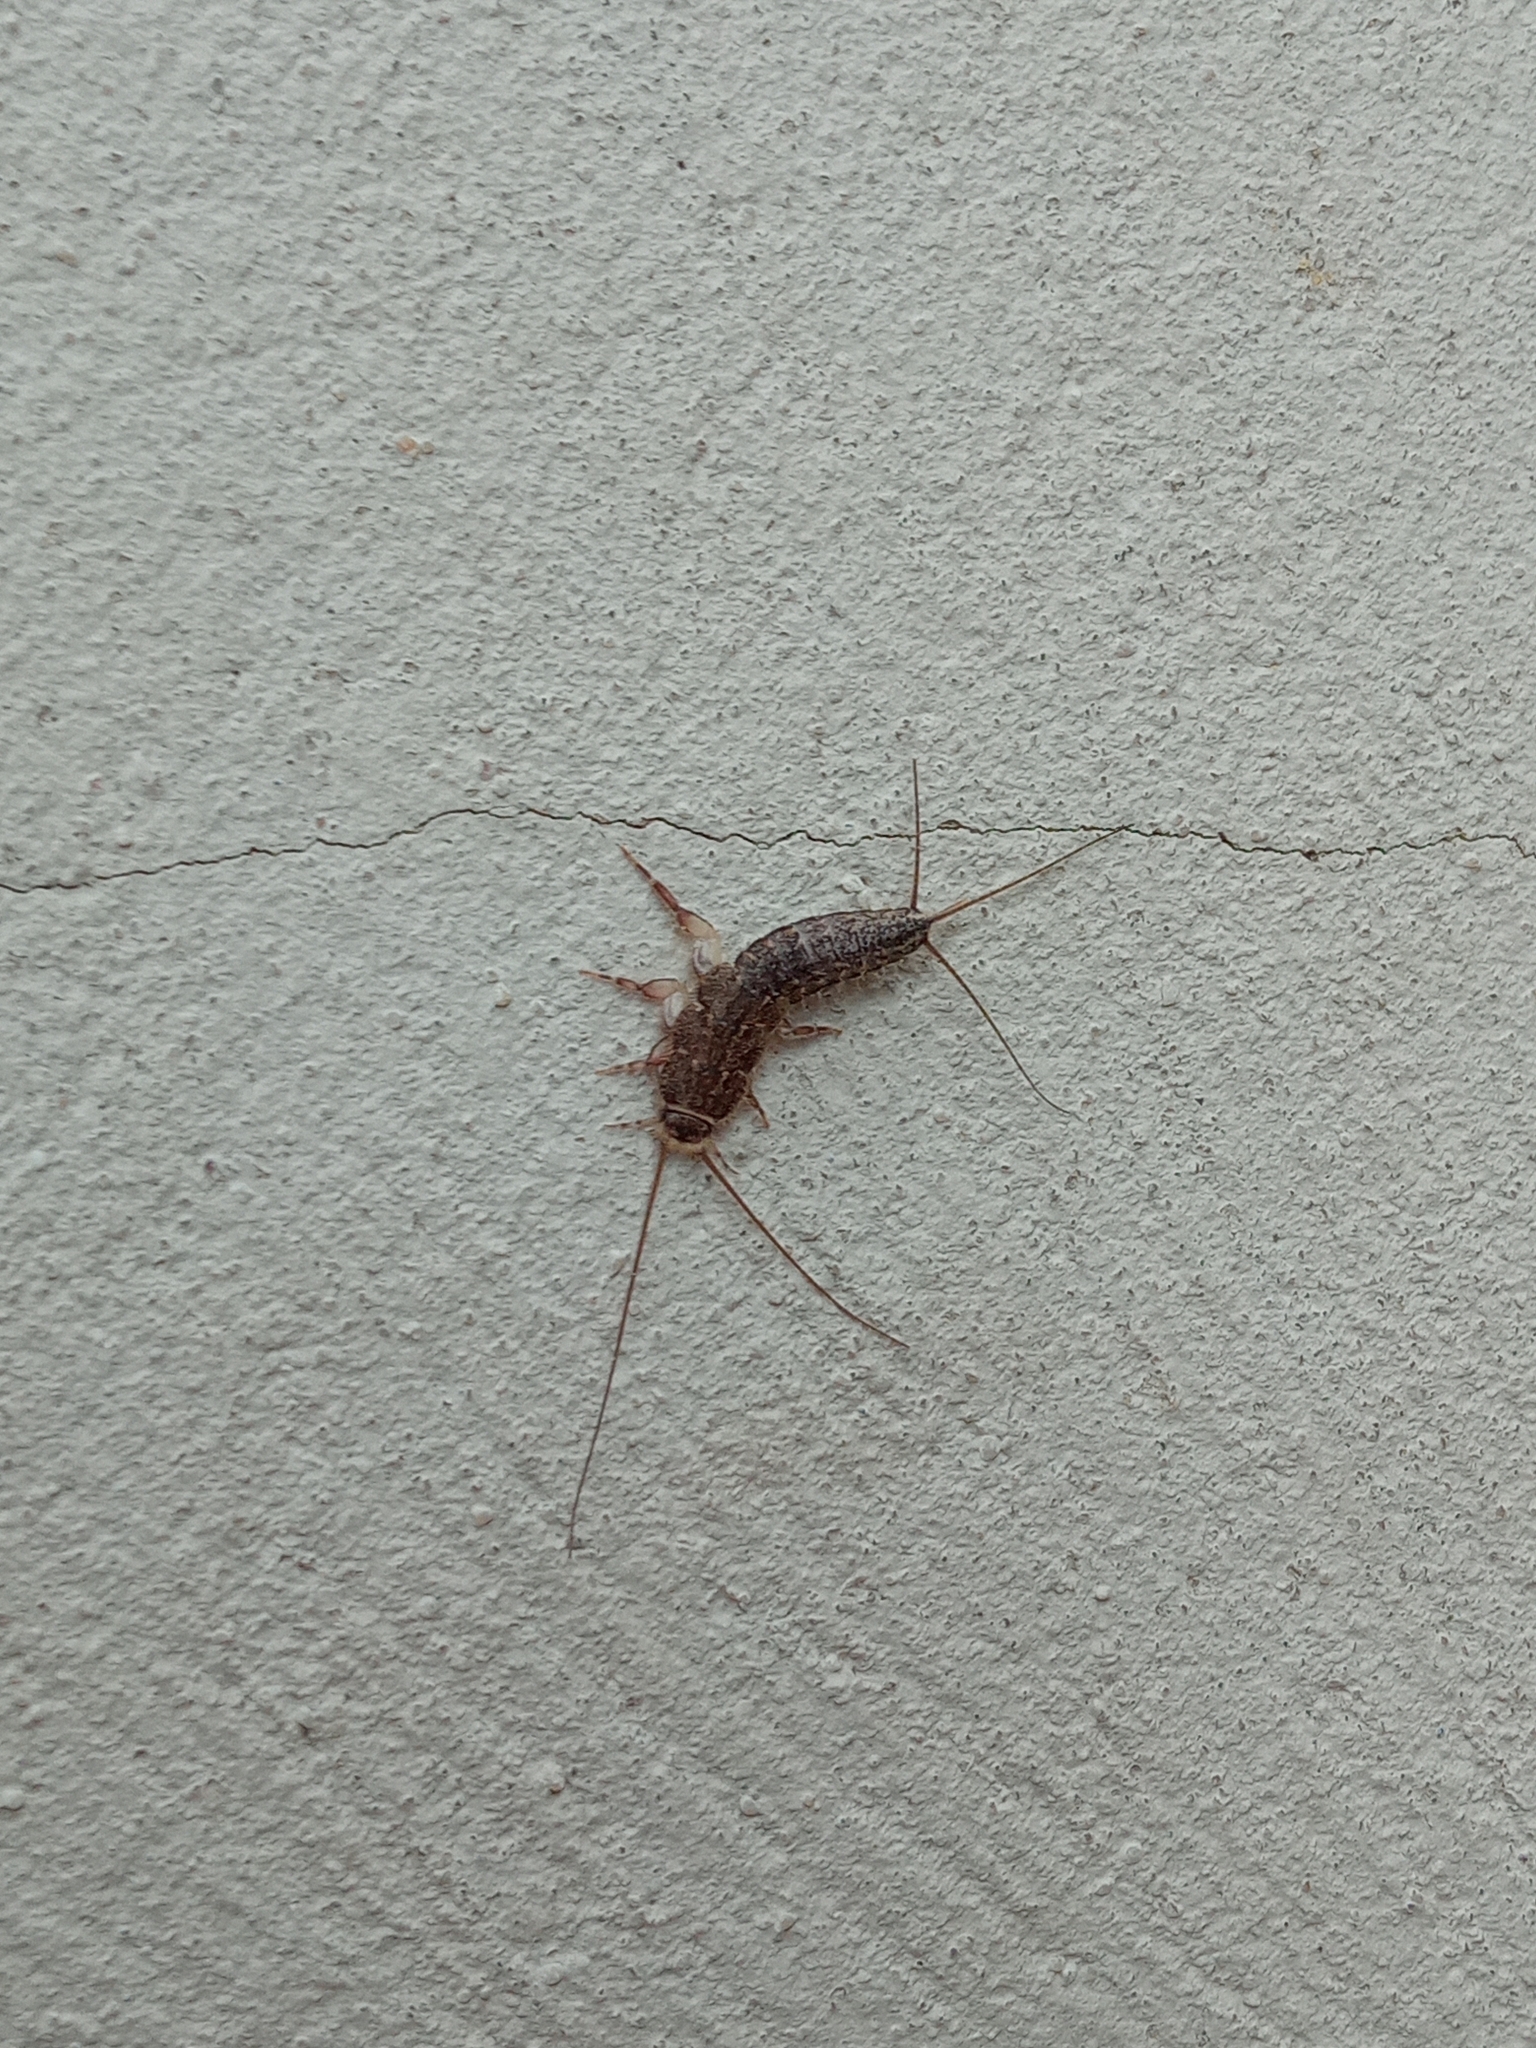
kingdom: Animalia
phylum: Arthropoda
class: Insecta
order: Zygentoma
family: Lepismatidae
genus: Ctenolepisma
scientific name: Ctenolepisma lineata
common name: Four-lined silverfish
